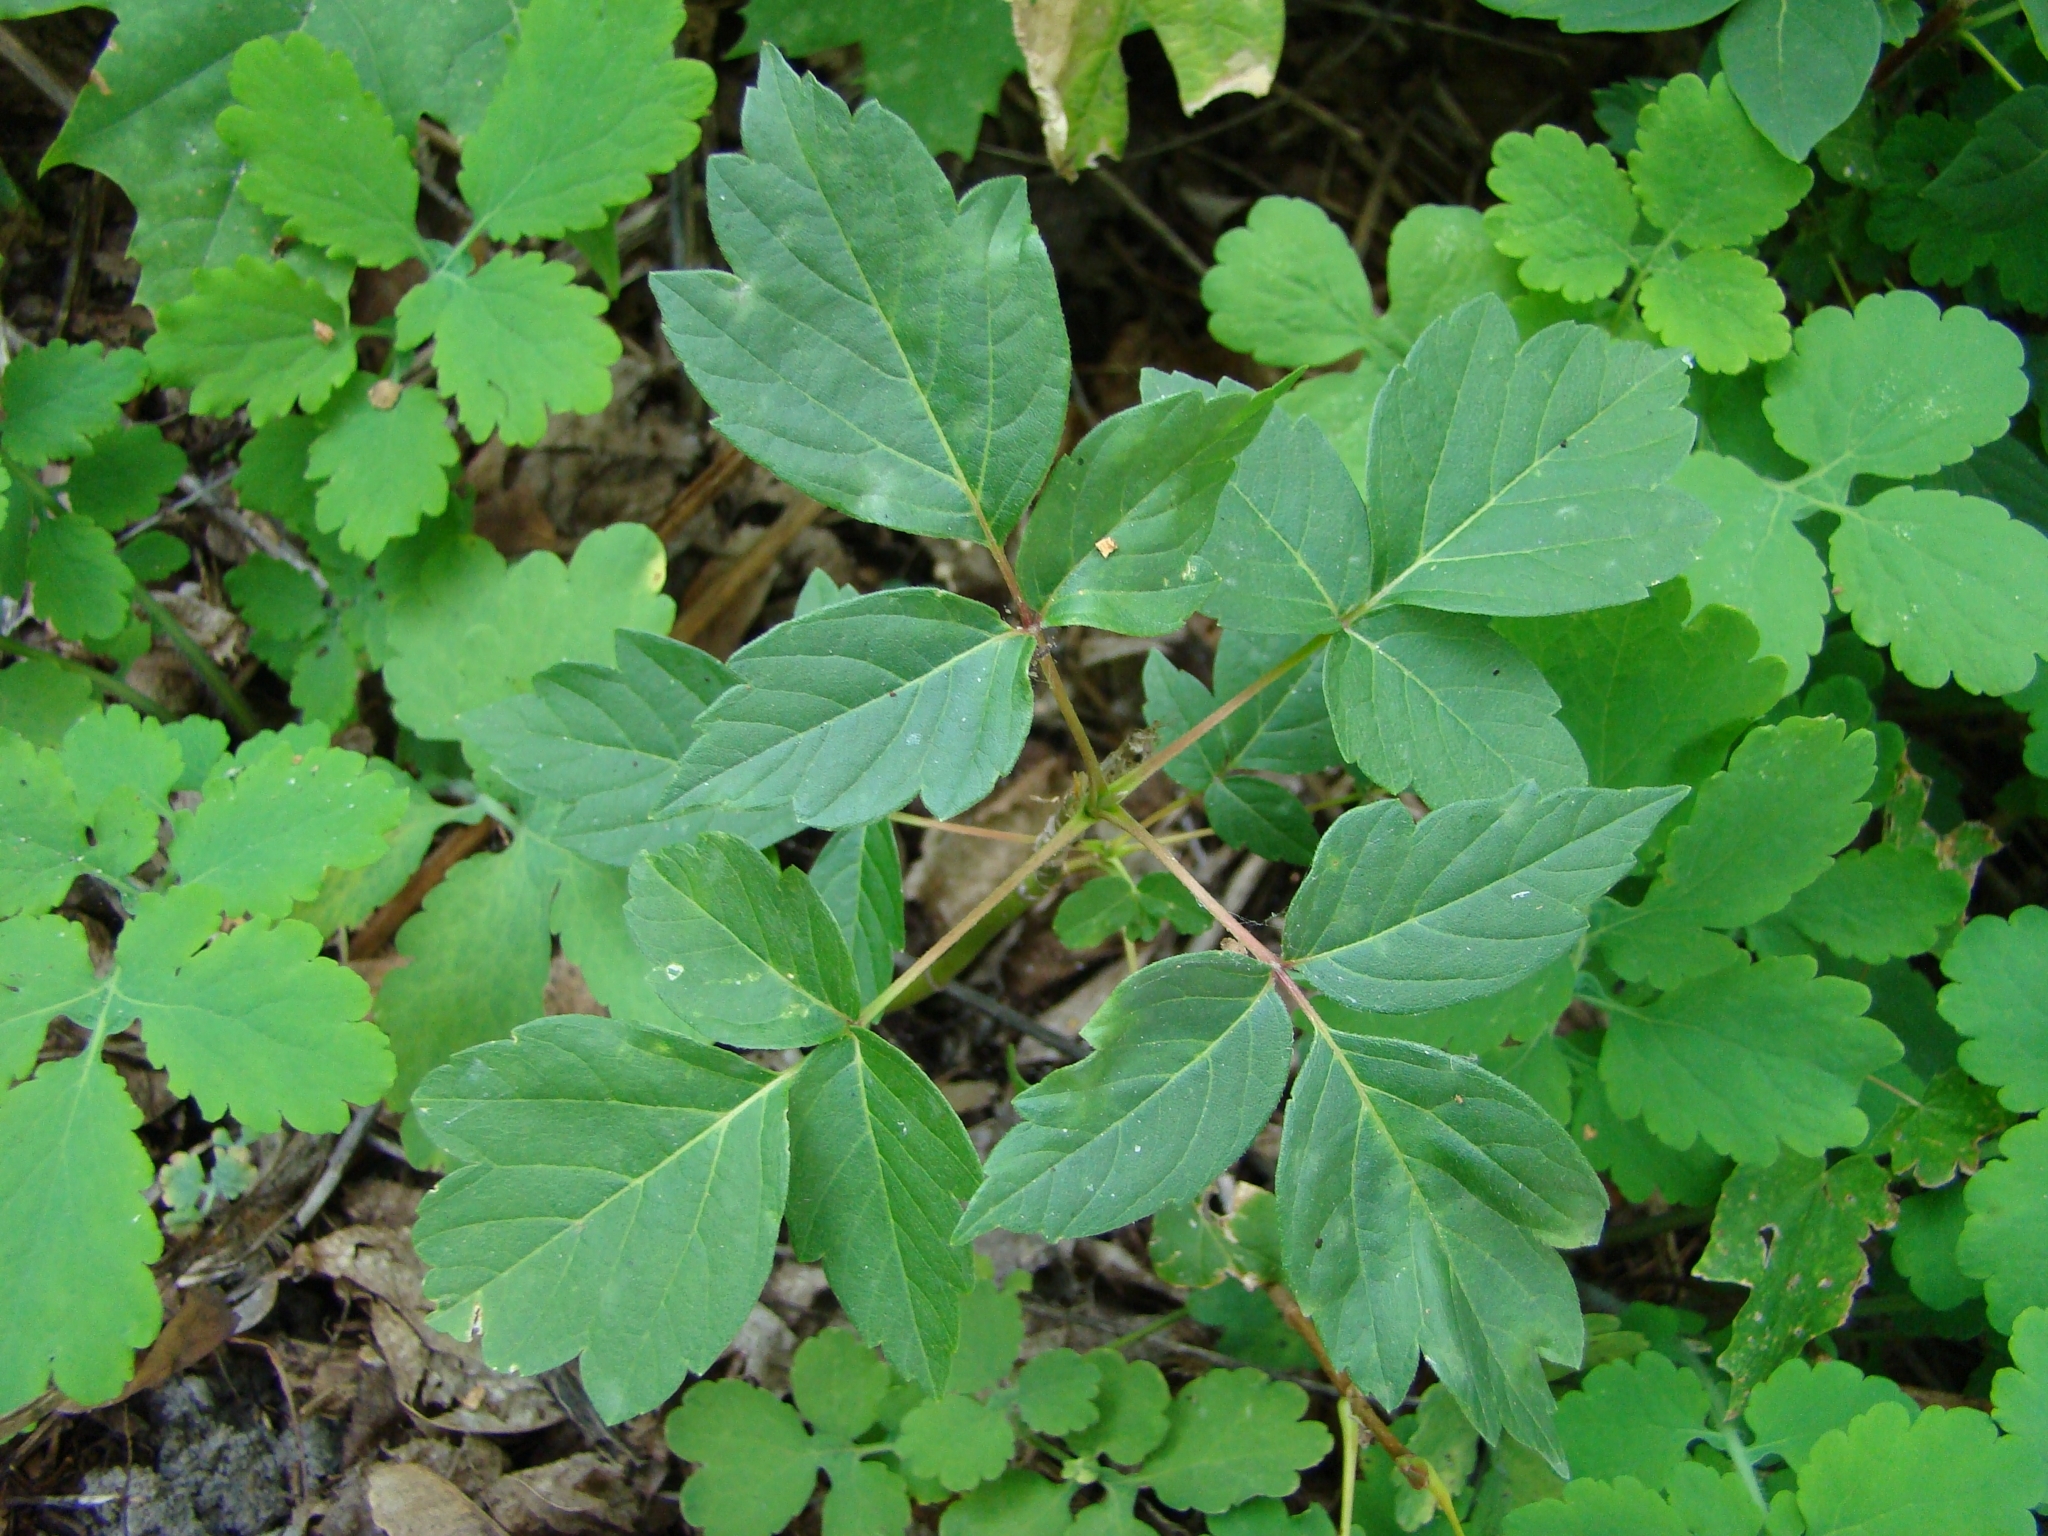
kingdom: Plantae
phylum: Tracheophyta
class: Magnoliopsida
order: Sapindales
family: Sapindaceae
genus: Acer
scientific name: Acer negundo
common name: Ashleaf maple
